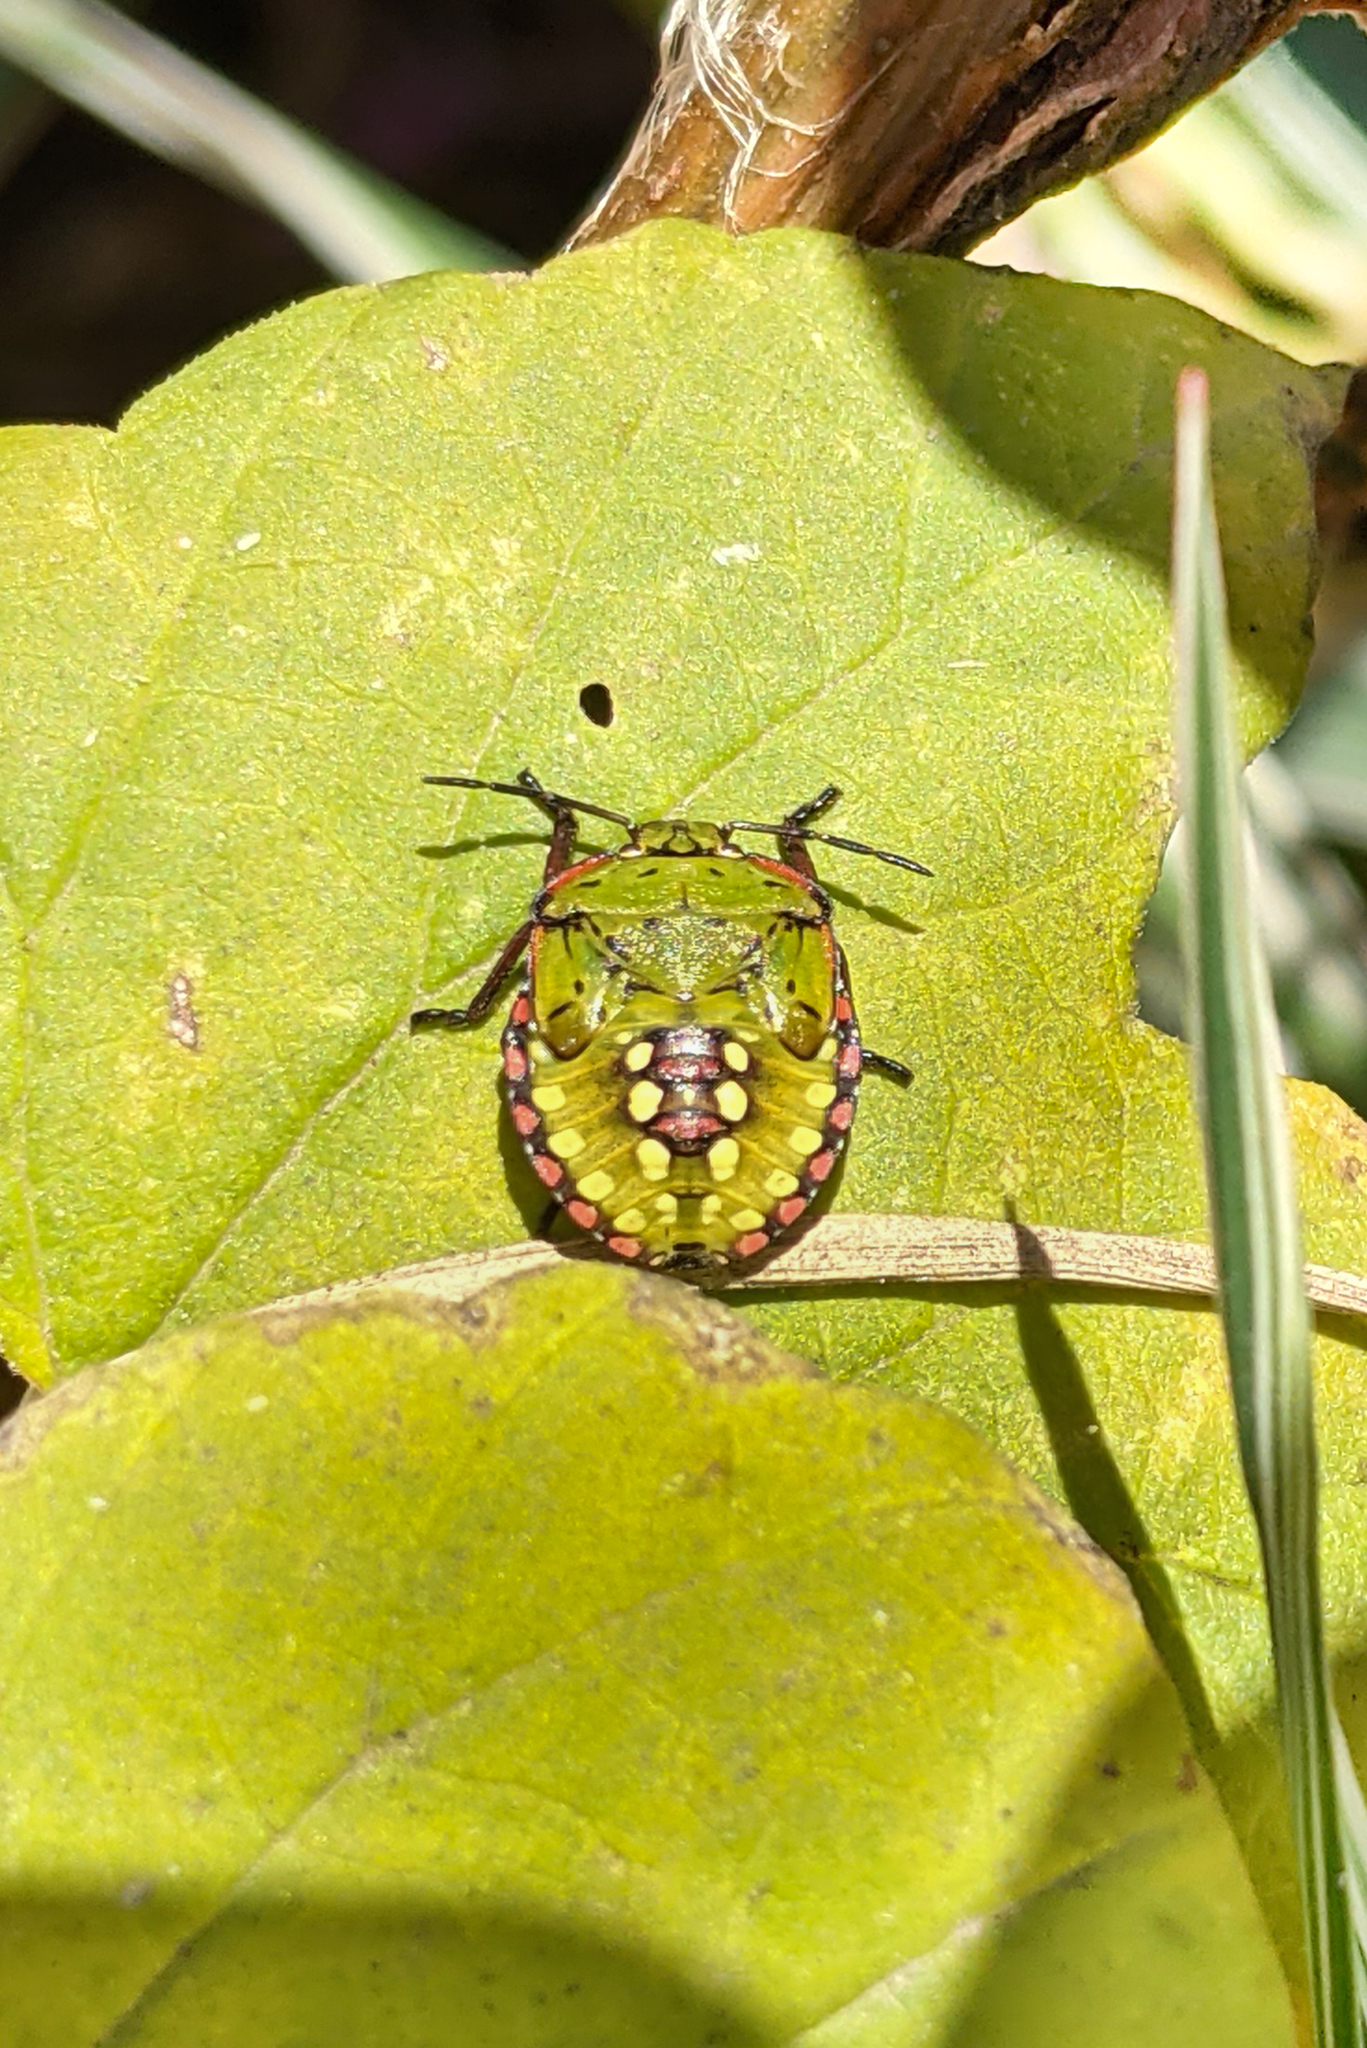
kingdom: Animalia
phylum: Arthropoda
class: Insecta
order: Hemiptera
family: Pentatomidae
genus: Nezara
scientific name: Nezara viridula
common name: Southern green stink bug
